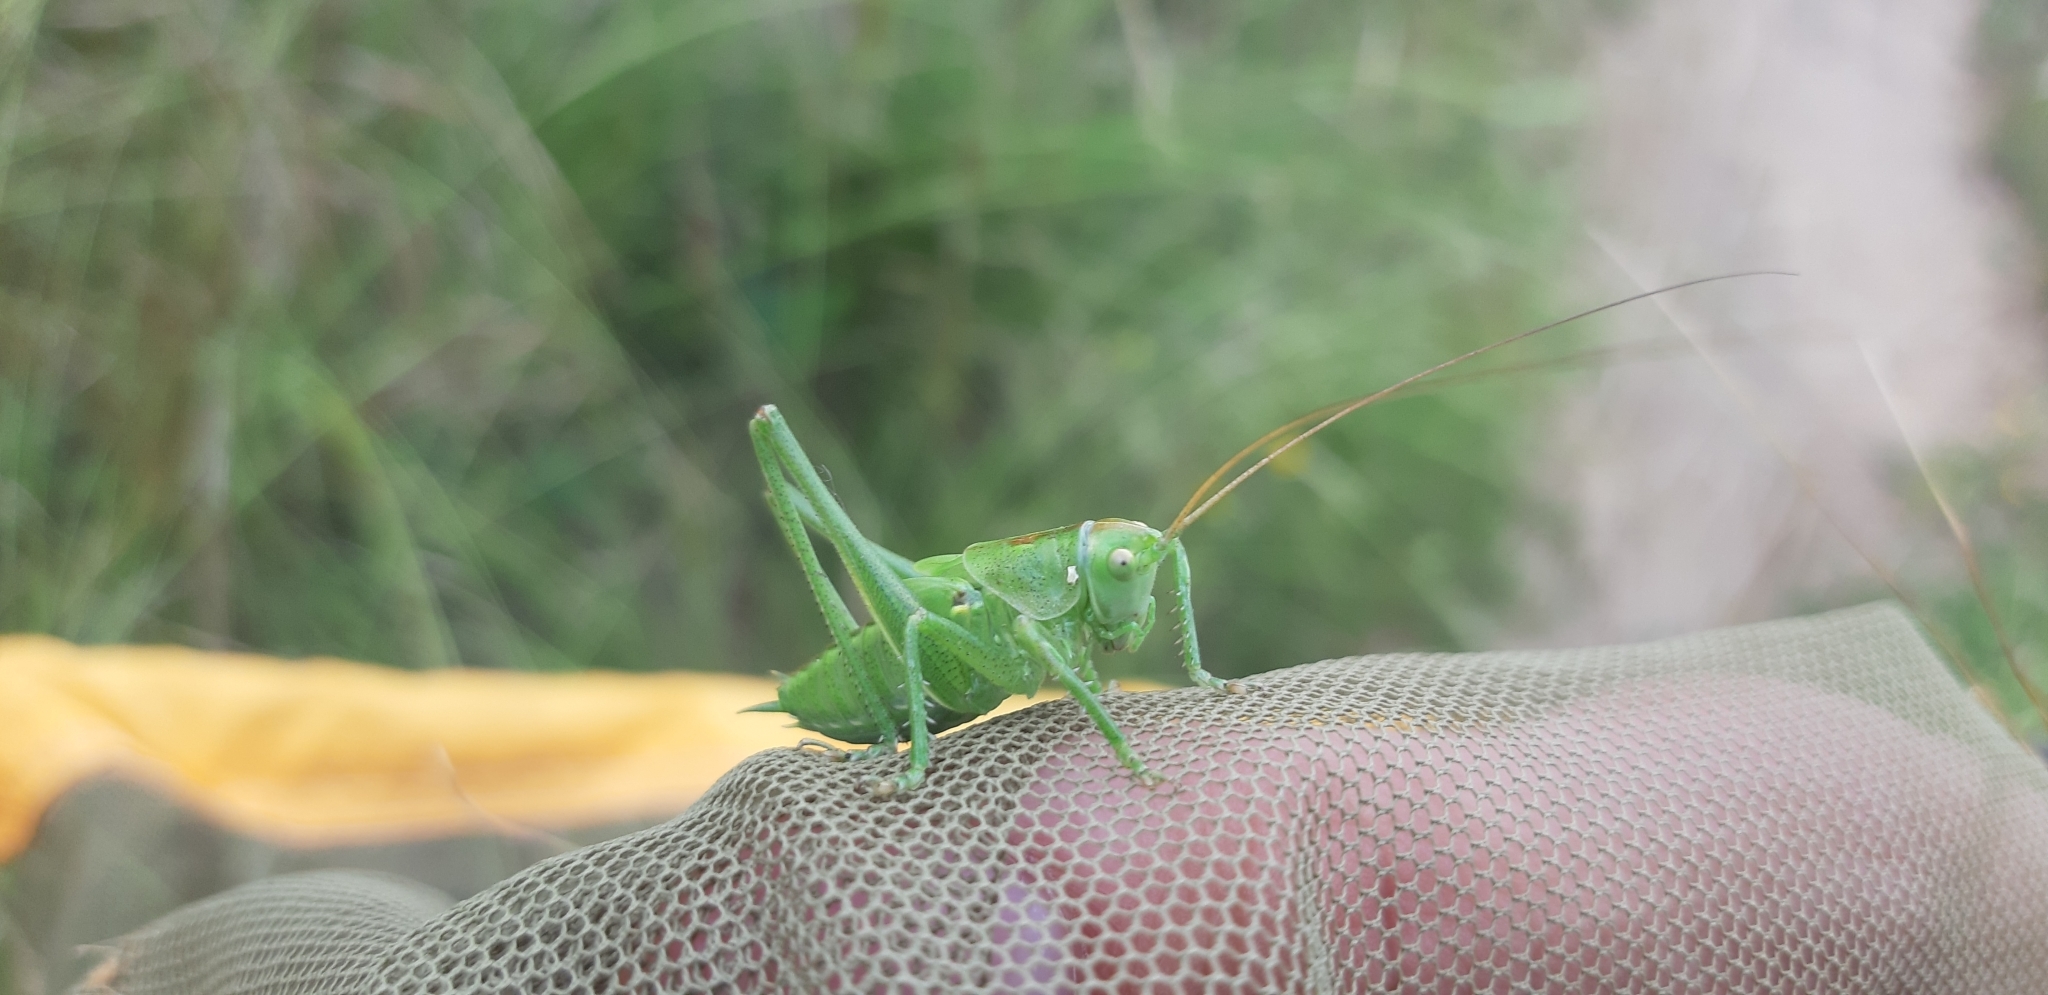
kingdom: Animalia
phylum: Arthropoda
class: Insecta
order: Orthoptera
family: Tettigoniidae
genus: Tettigonia
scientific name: Tettigonia viridissima
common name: Great green bush-cricket
